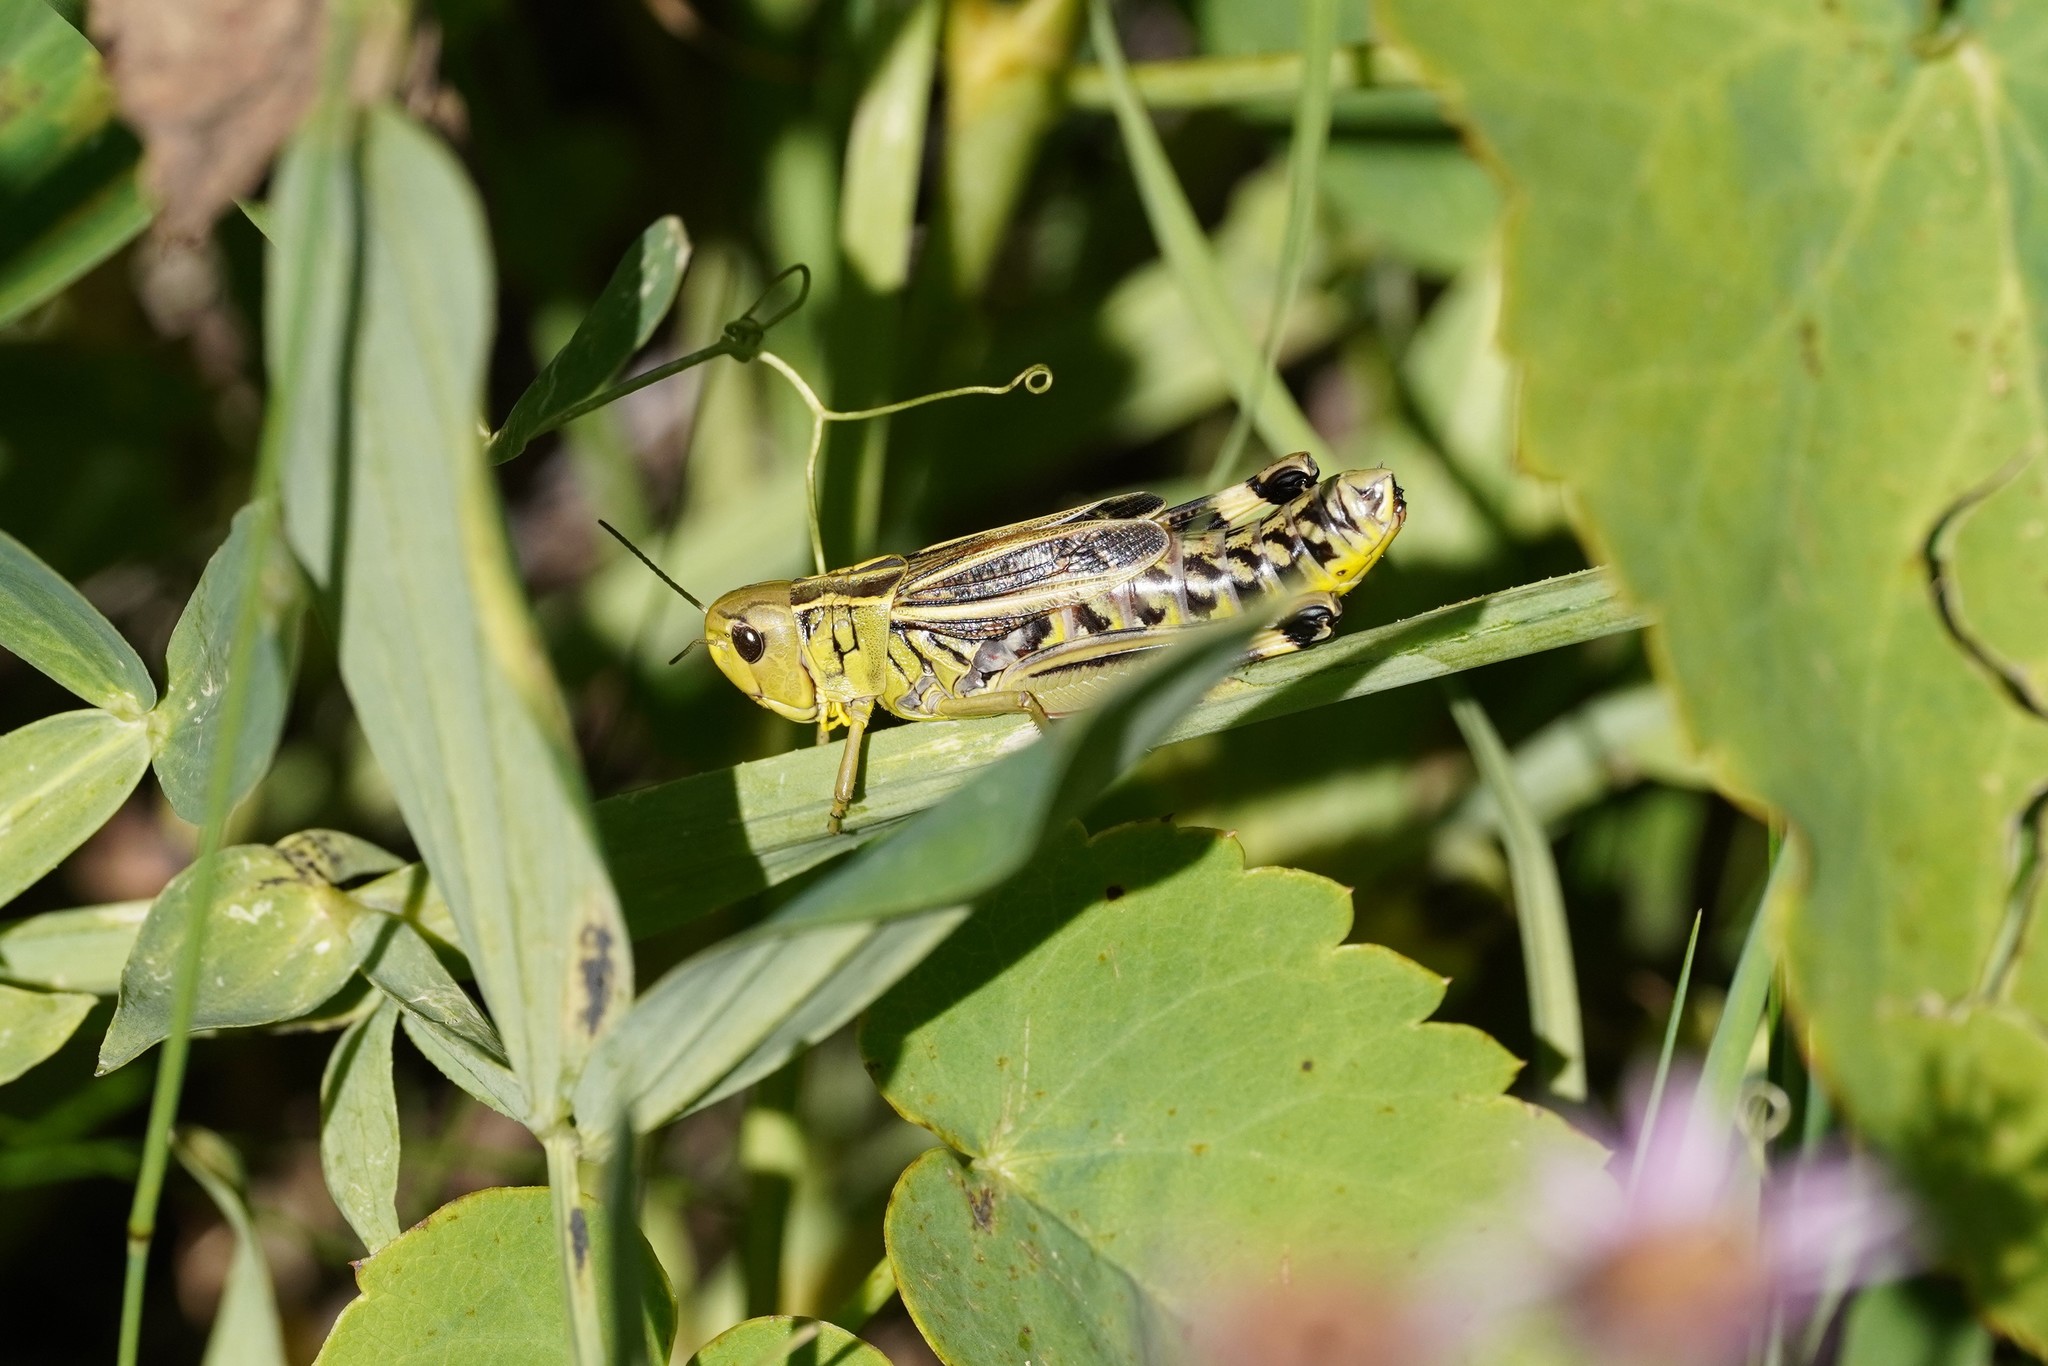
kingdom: Animalia
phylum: Arthropoda
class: Insecta
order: Orthoptera
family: Acrididae
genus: Arcyptera
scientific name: Arcyptera fusca
